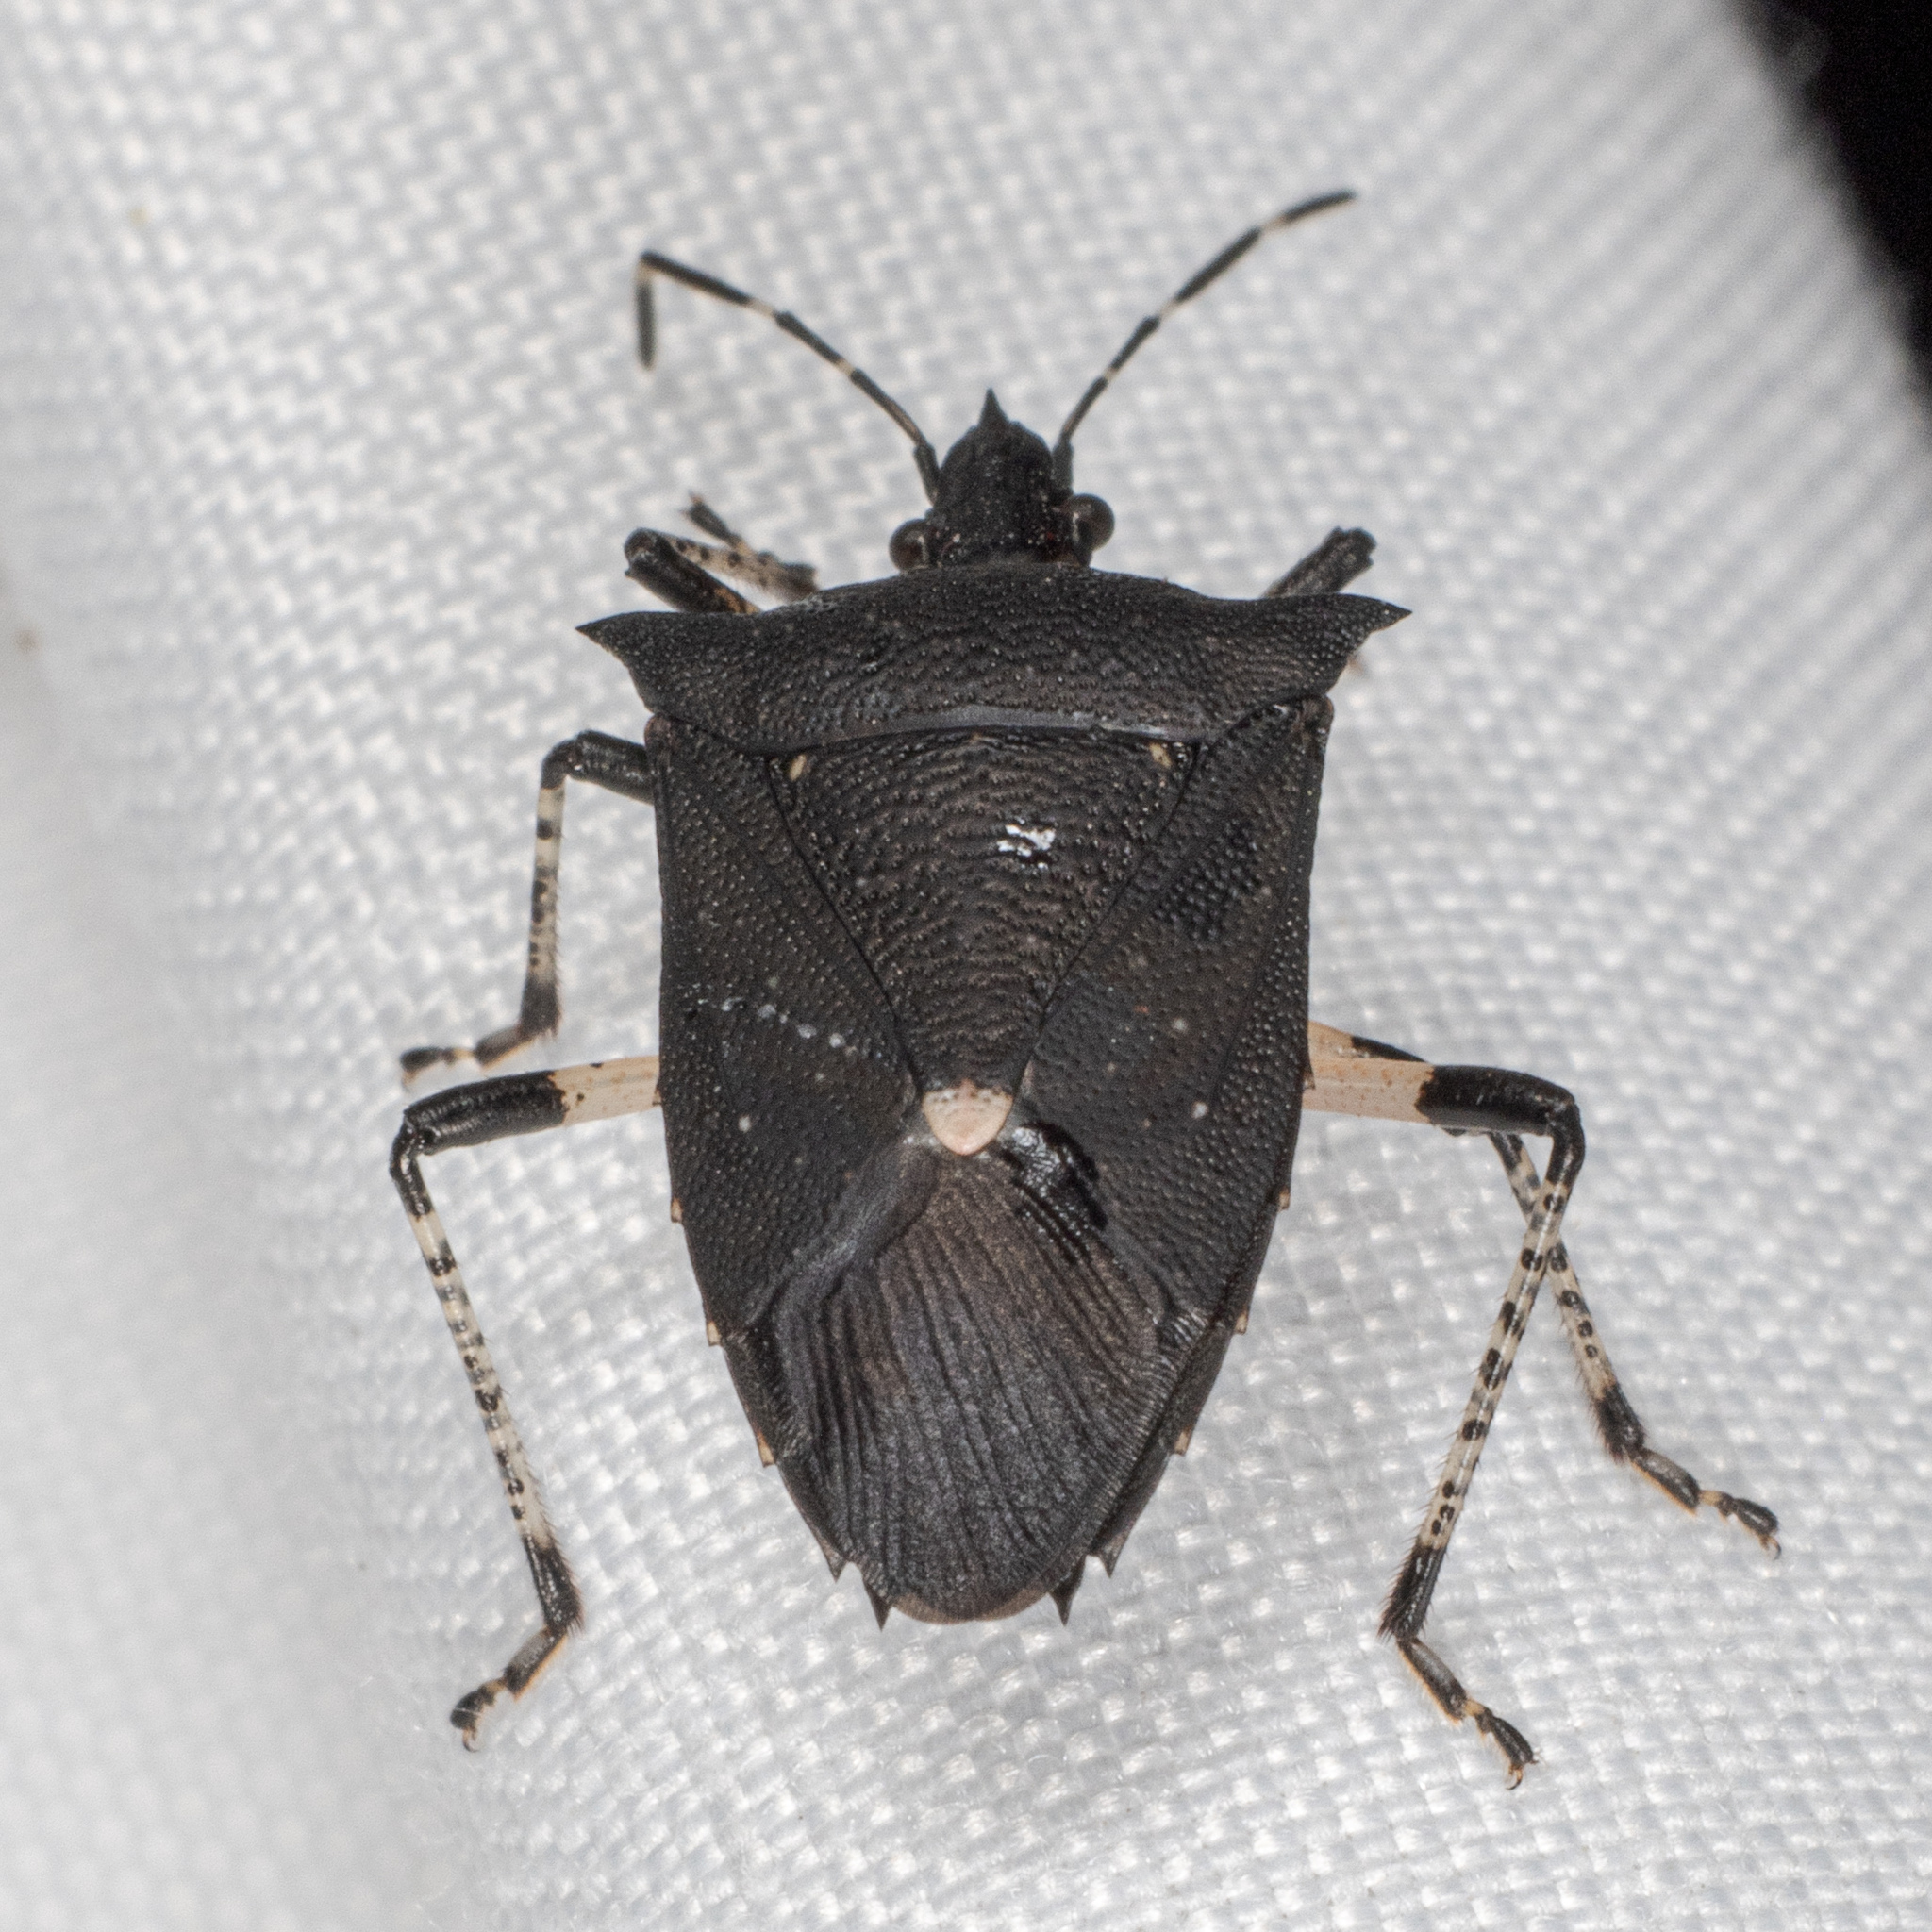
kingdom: Animalia
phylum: Arthropoda
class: Insecta
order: Hemiptera
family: Pentatomidae
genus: Proxys
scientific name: Proxys punctulatus
